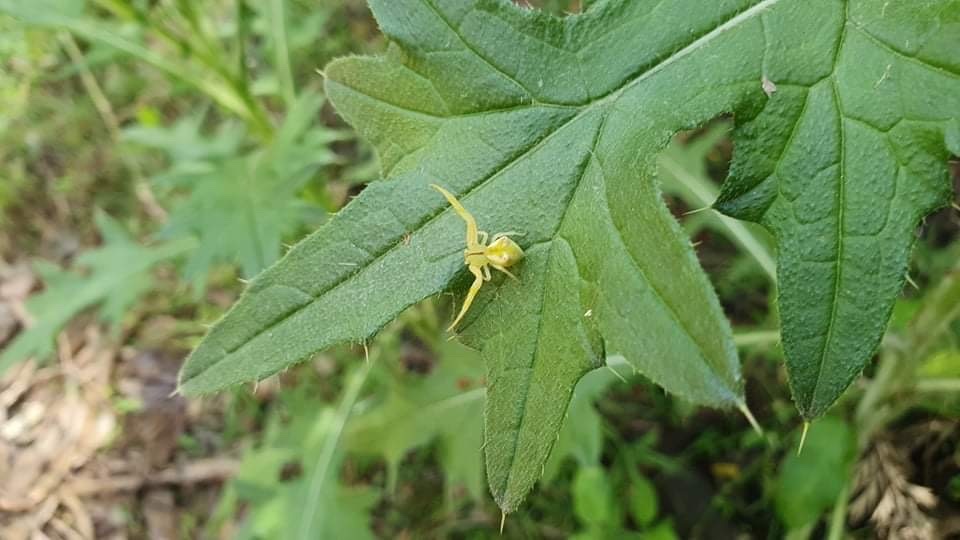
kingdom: Animalia
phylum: Arthropoda
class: Arachnida
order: Araneae
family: Thomisidae
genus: Sidymella
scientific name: Sidymella rubrosignata
